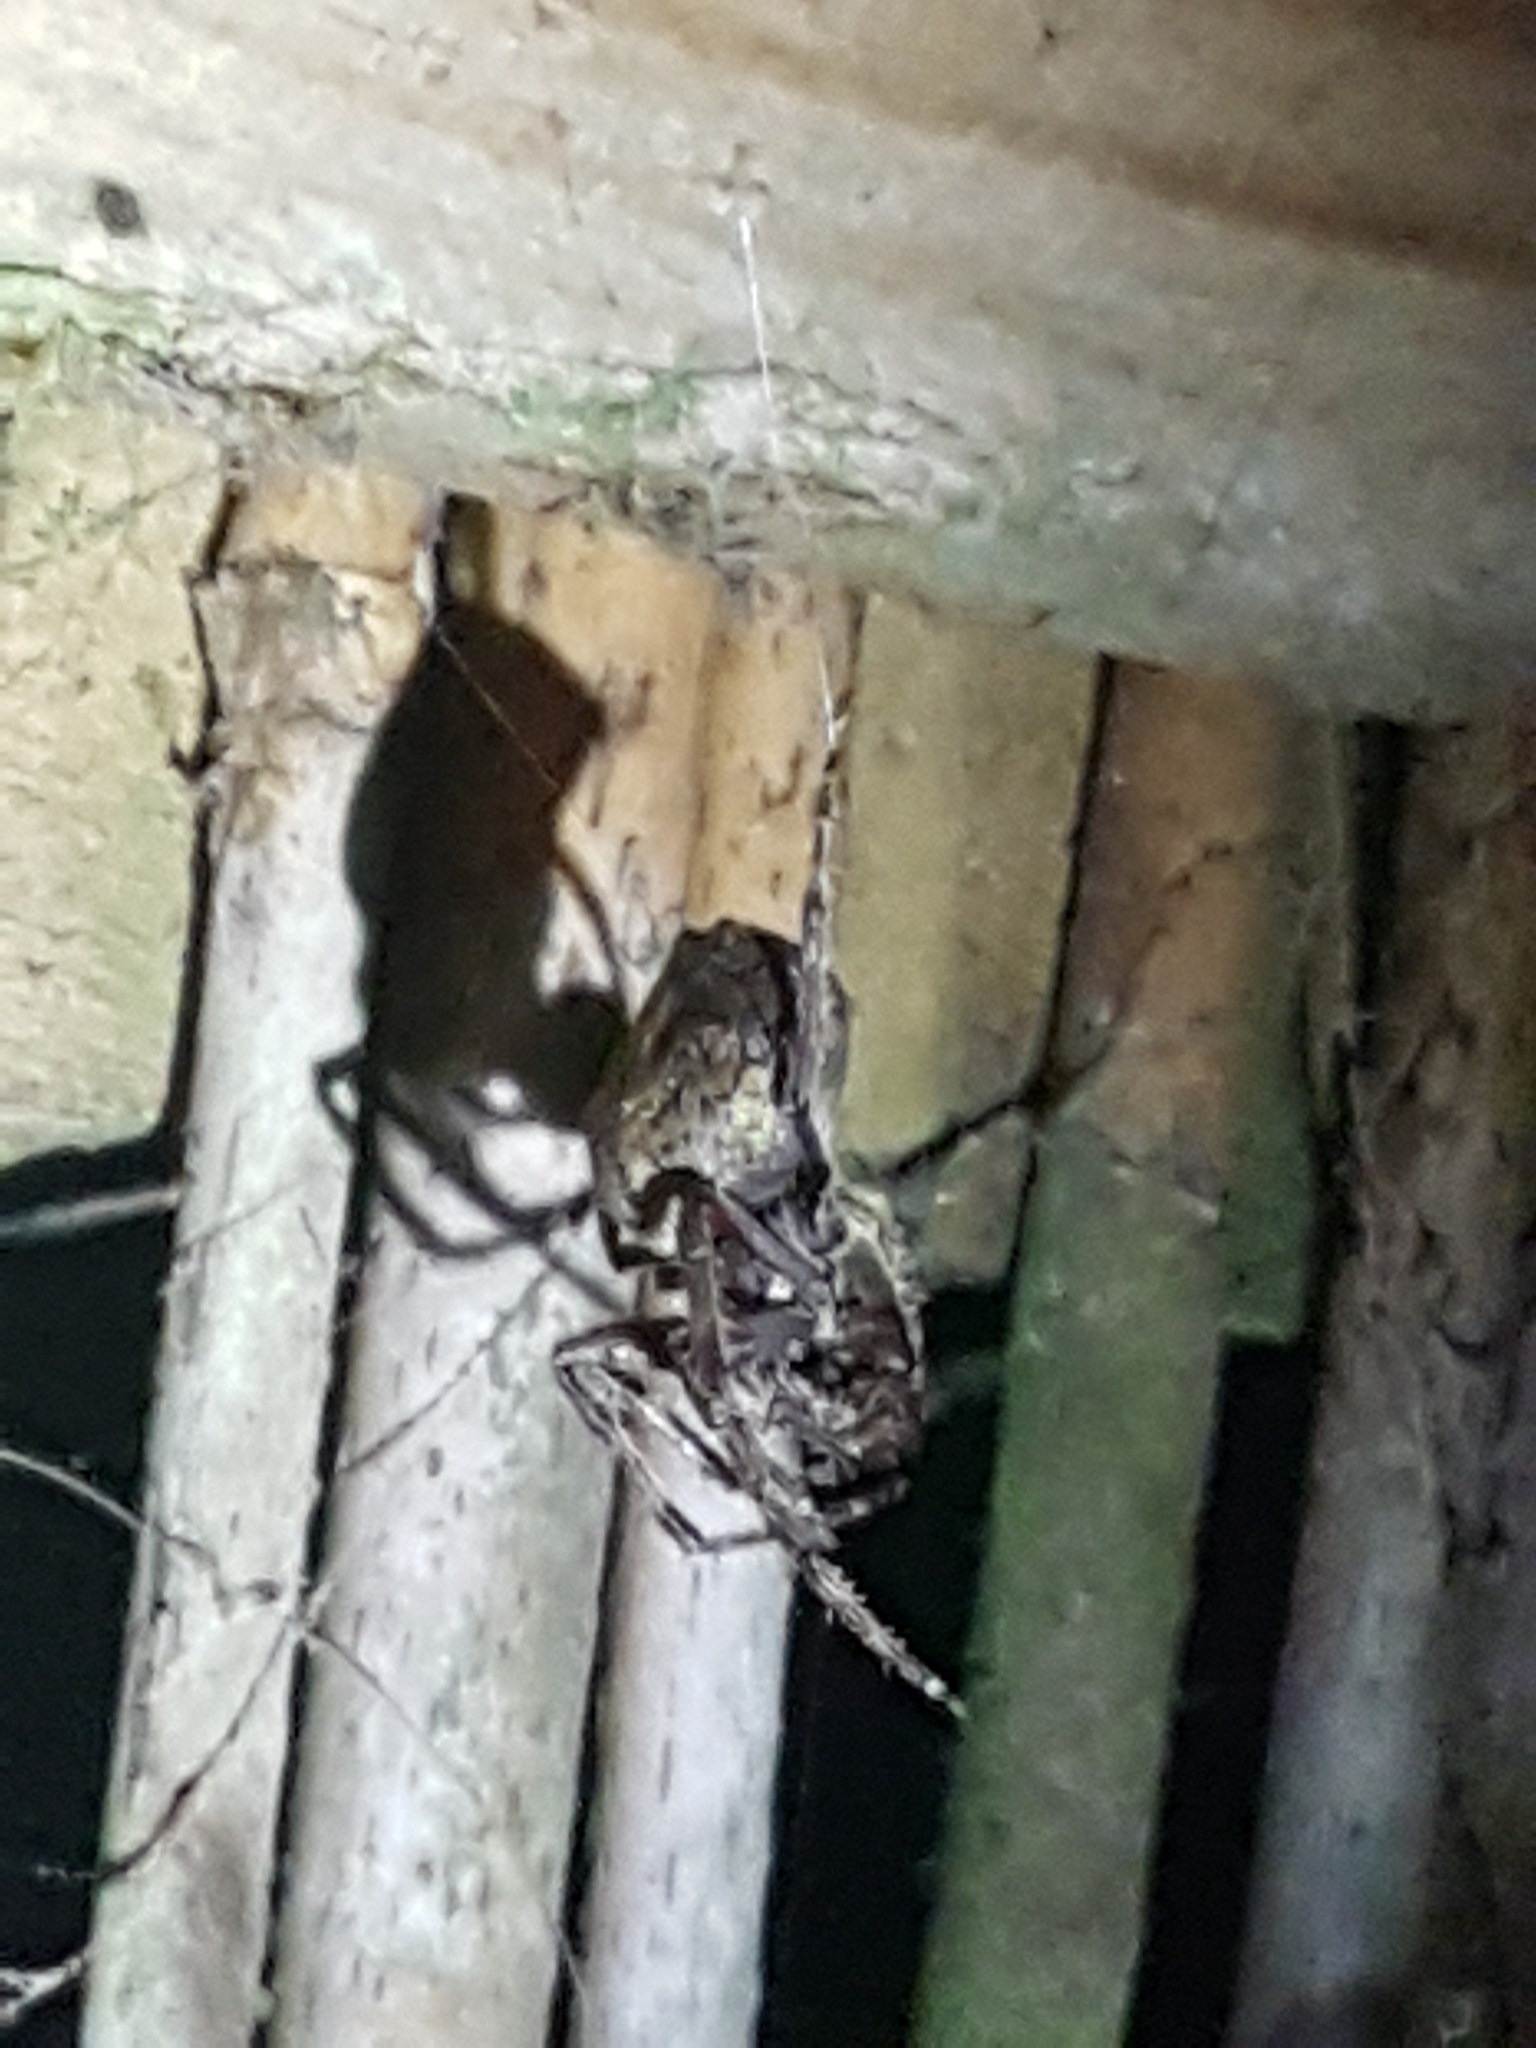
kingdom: Animalia
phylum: Arthropoda
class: Arachnida
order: Araneae
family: Araneidae
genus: Eriophora
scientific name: Eriophora pustulosa
